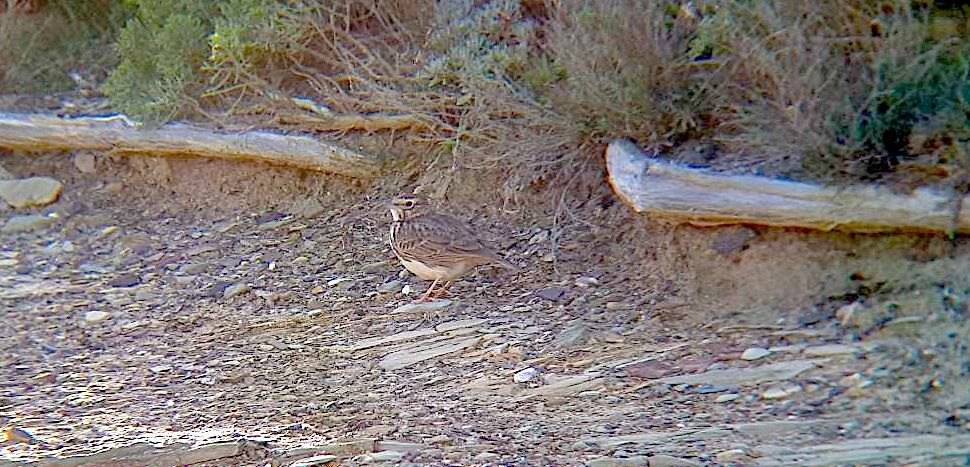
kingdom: Animalia
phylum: Chordata
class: Aves
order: Passeriformes
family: Alaudidae
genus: Galerida
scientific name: Galerida theklae
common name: Thekla lark
